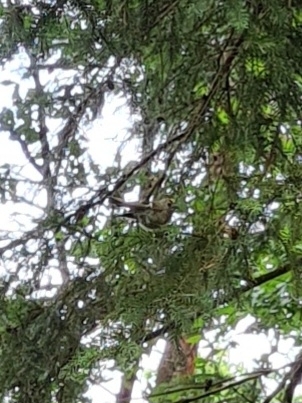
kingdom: Animalia
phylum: Chordata
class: Aves
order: Passeriformes
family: Regulidae
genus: Regulus
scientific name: Regulus regulus
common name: Goldcrest
